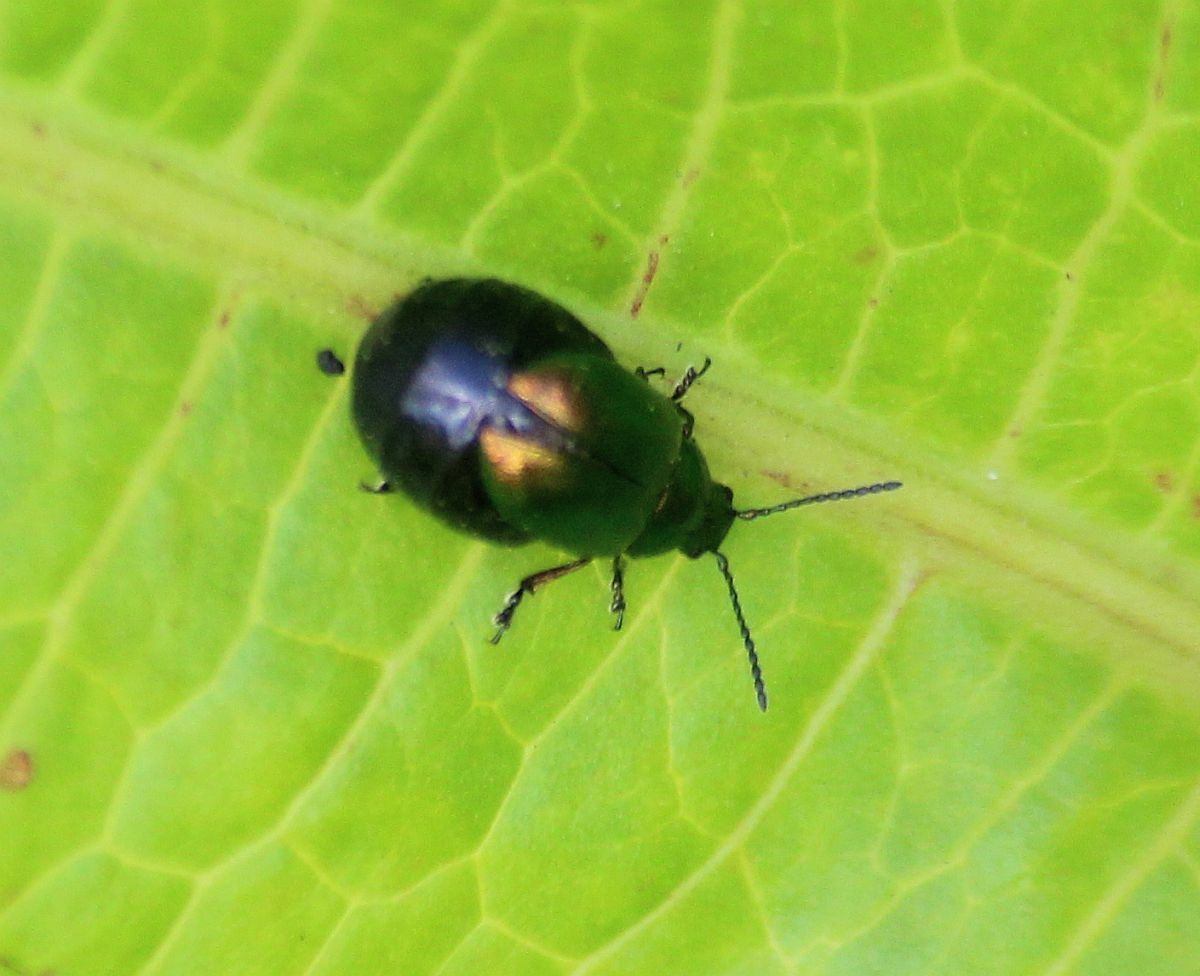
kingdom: Animalia
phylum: Arthropoda
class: Insecta
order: Coleoptera
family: Chrysomelidae
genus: Gastrophysa
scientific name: Gastrophysa viridula
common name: Green dock beetle
